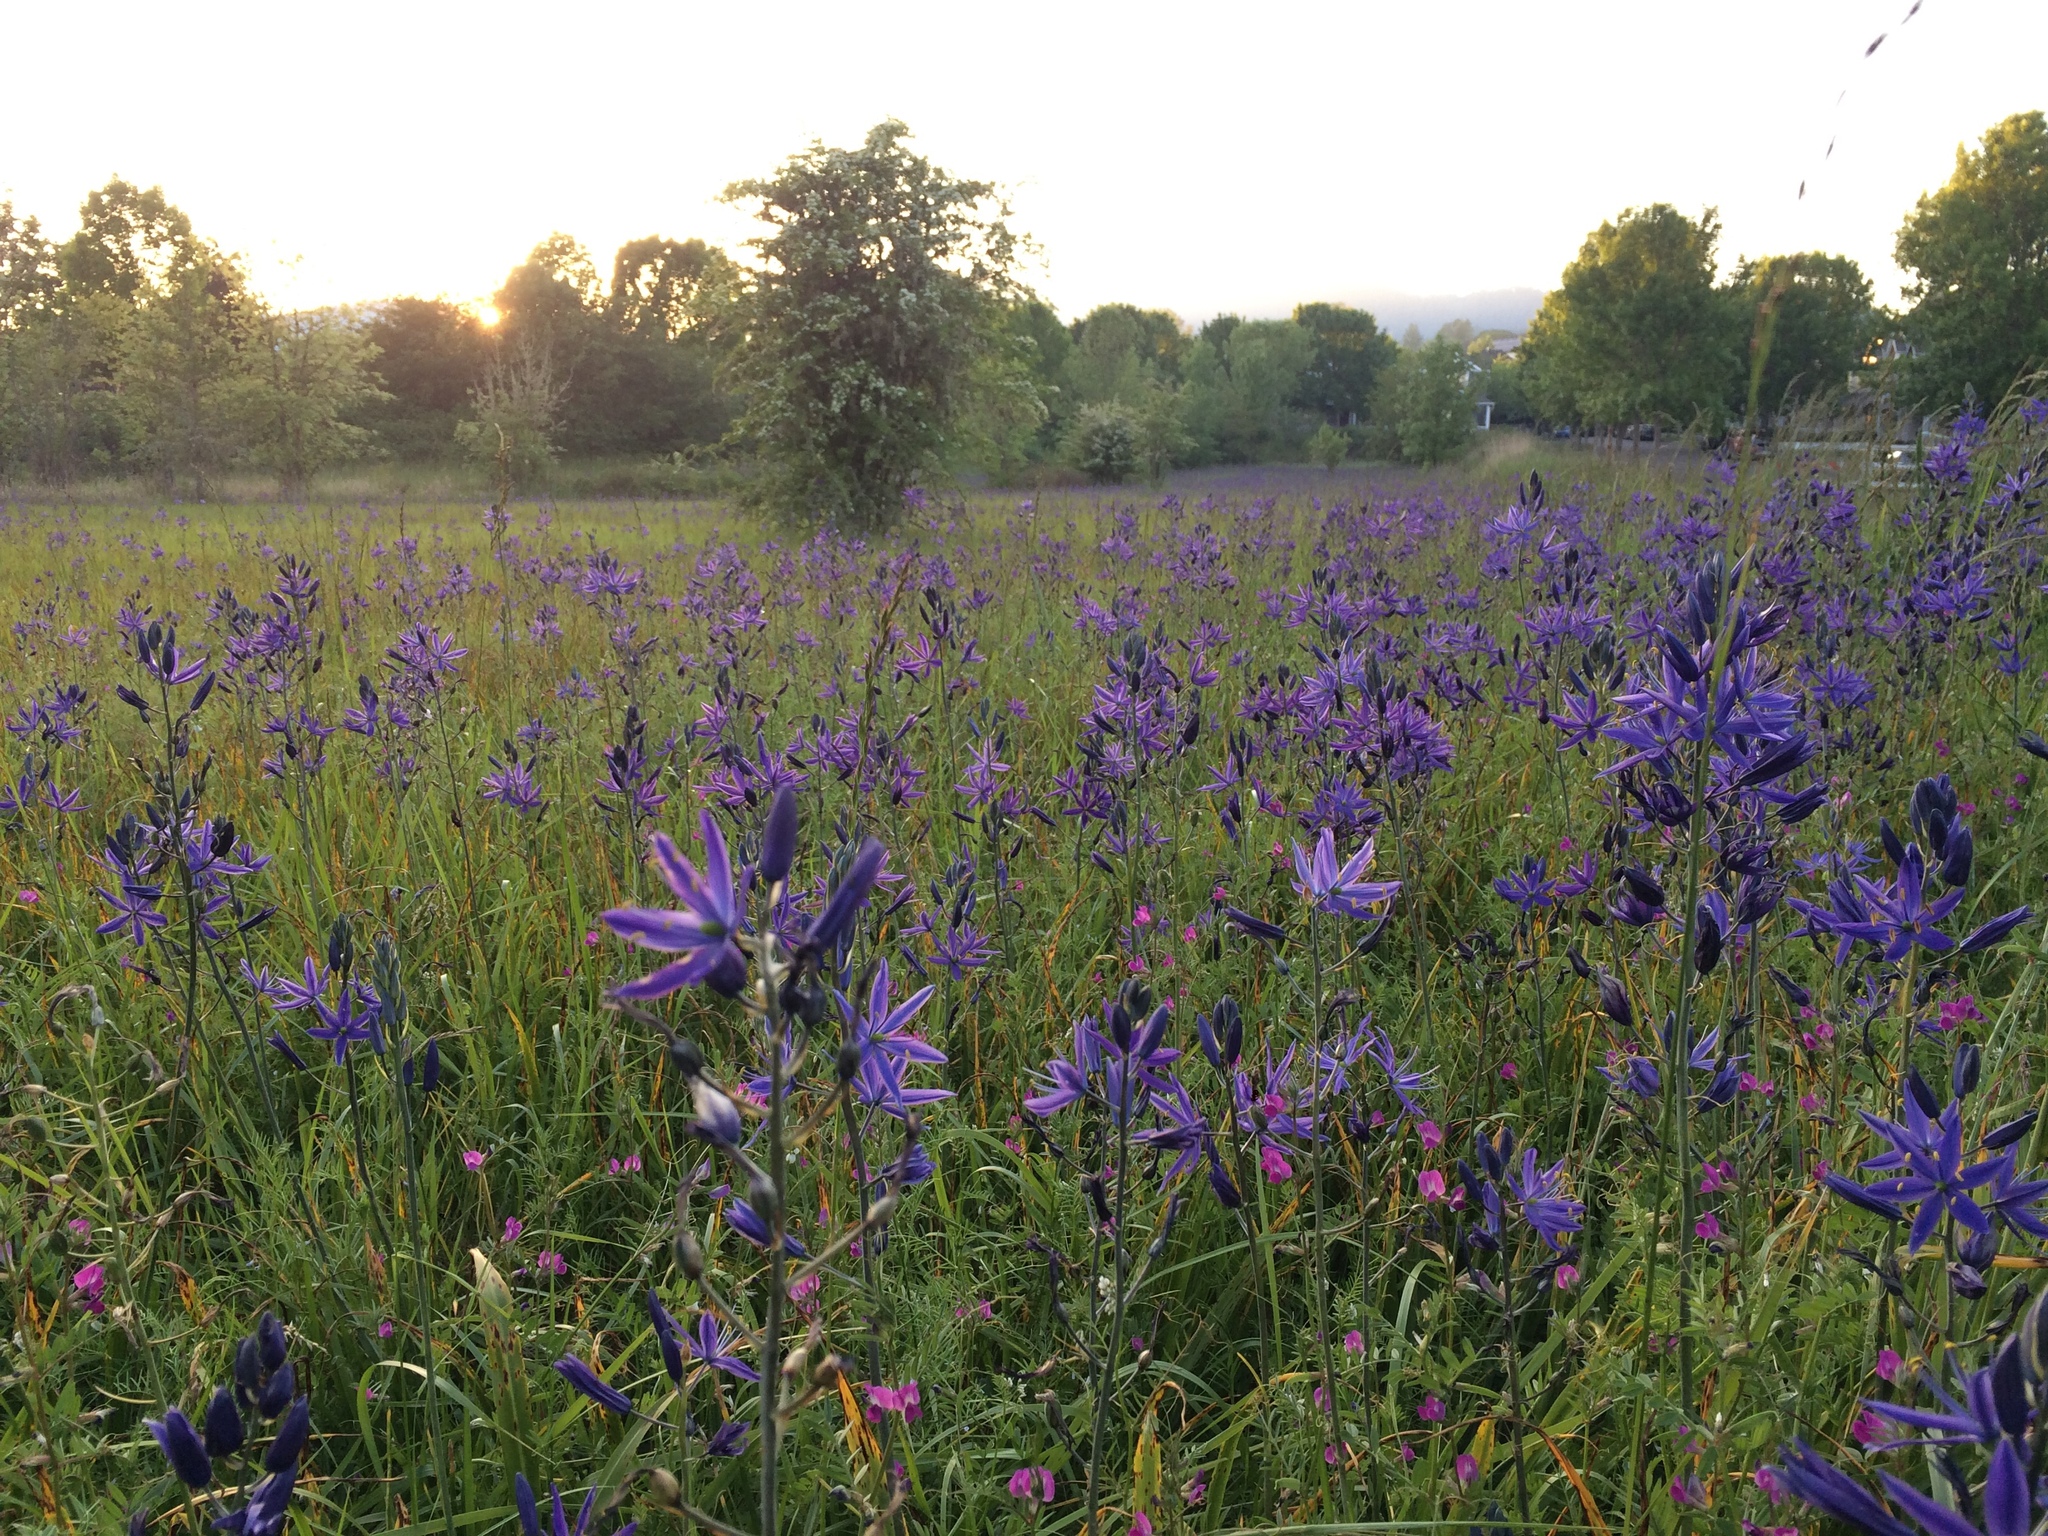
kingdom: Plantae
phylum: Tracheophyta
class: Liliopsida
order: Asparagales
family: Asparagaceae
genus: Camassia
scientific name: Camassia leichtlinii
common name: Leichtlin's camas
